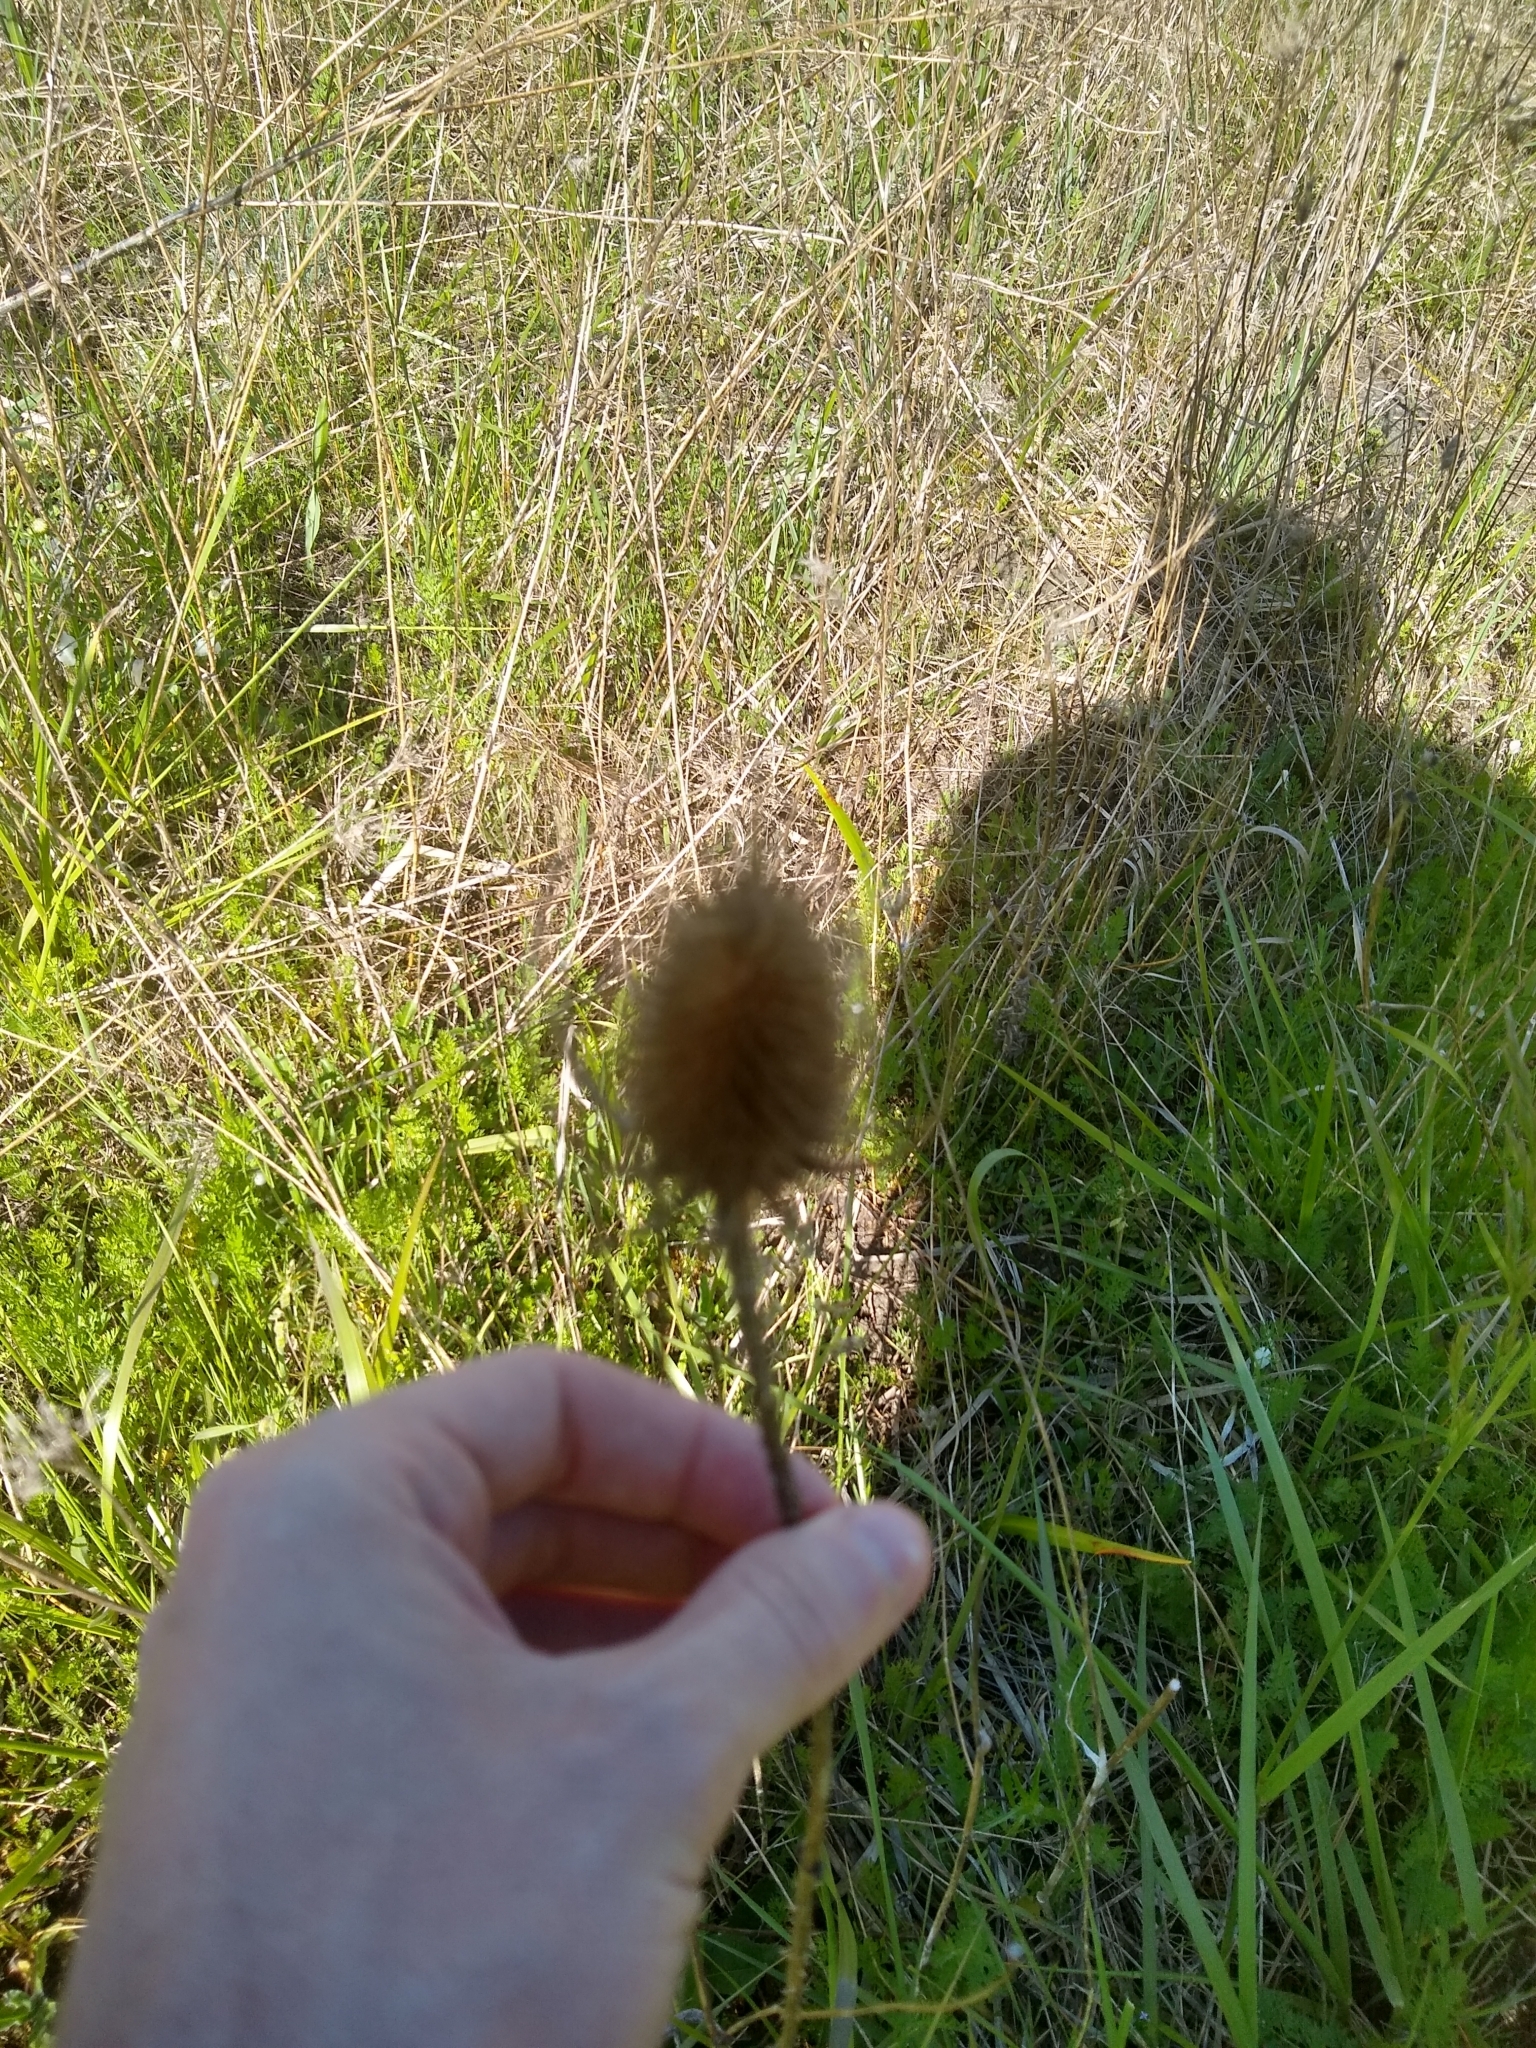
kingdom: Plantae
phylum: Tracheophyta
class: Magnoliopsida
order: Dipsacales
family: Caprifoliaceae
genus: Dipsacus
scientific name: Dipsacus fullonum
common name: Teasel
